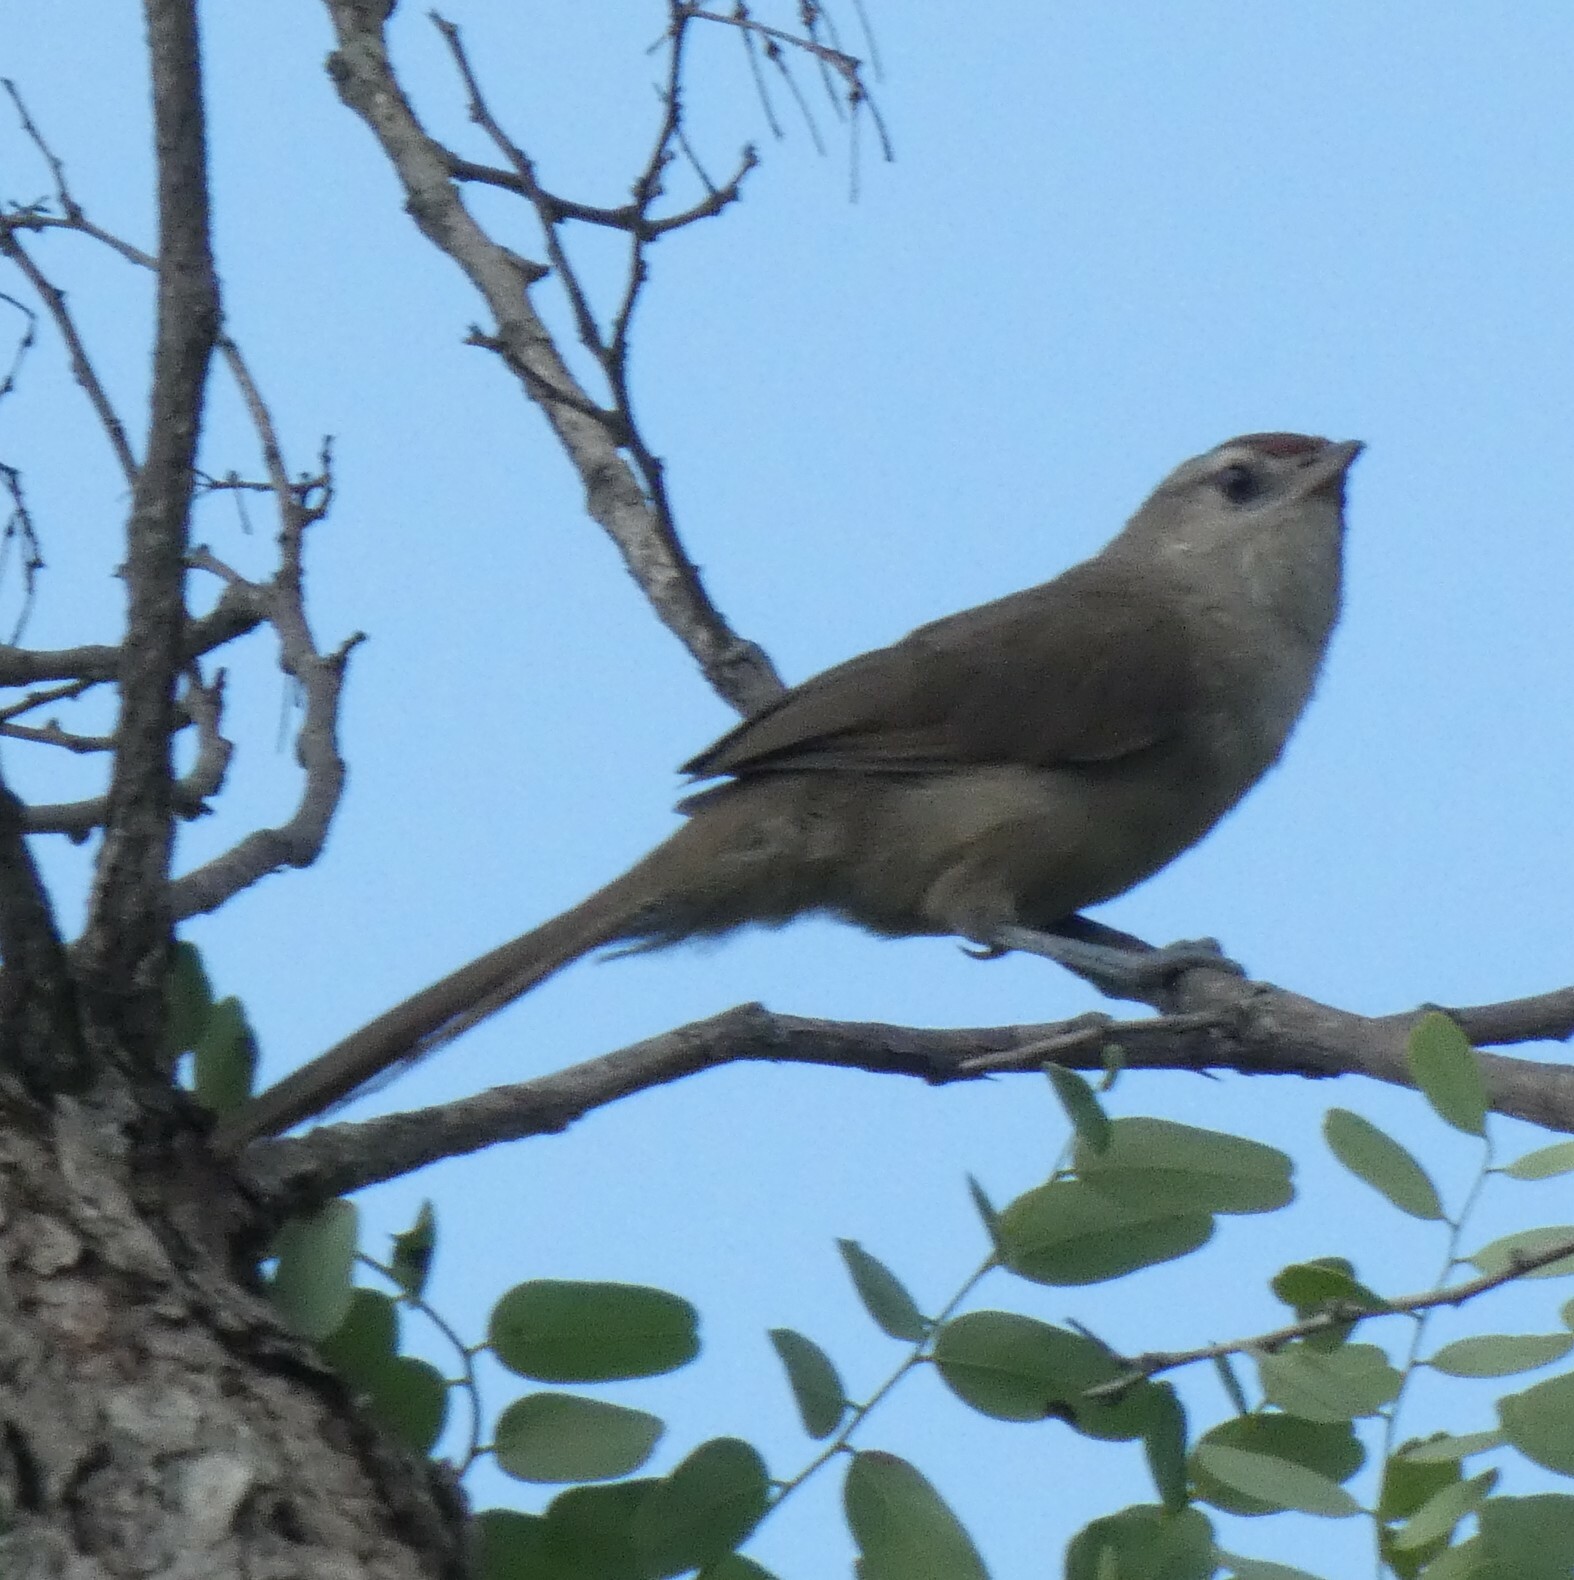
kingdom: Animalia
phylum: Chordata
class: Aves
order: Passeriformes
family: Furnariidae
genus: Phacellodomus
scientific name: Phacellodomus rufifrons
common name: Rufous-fronted thornbird
